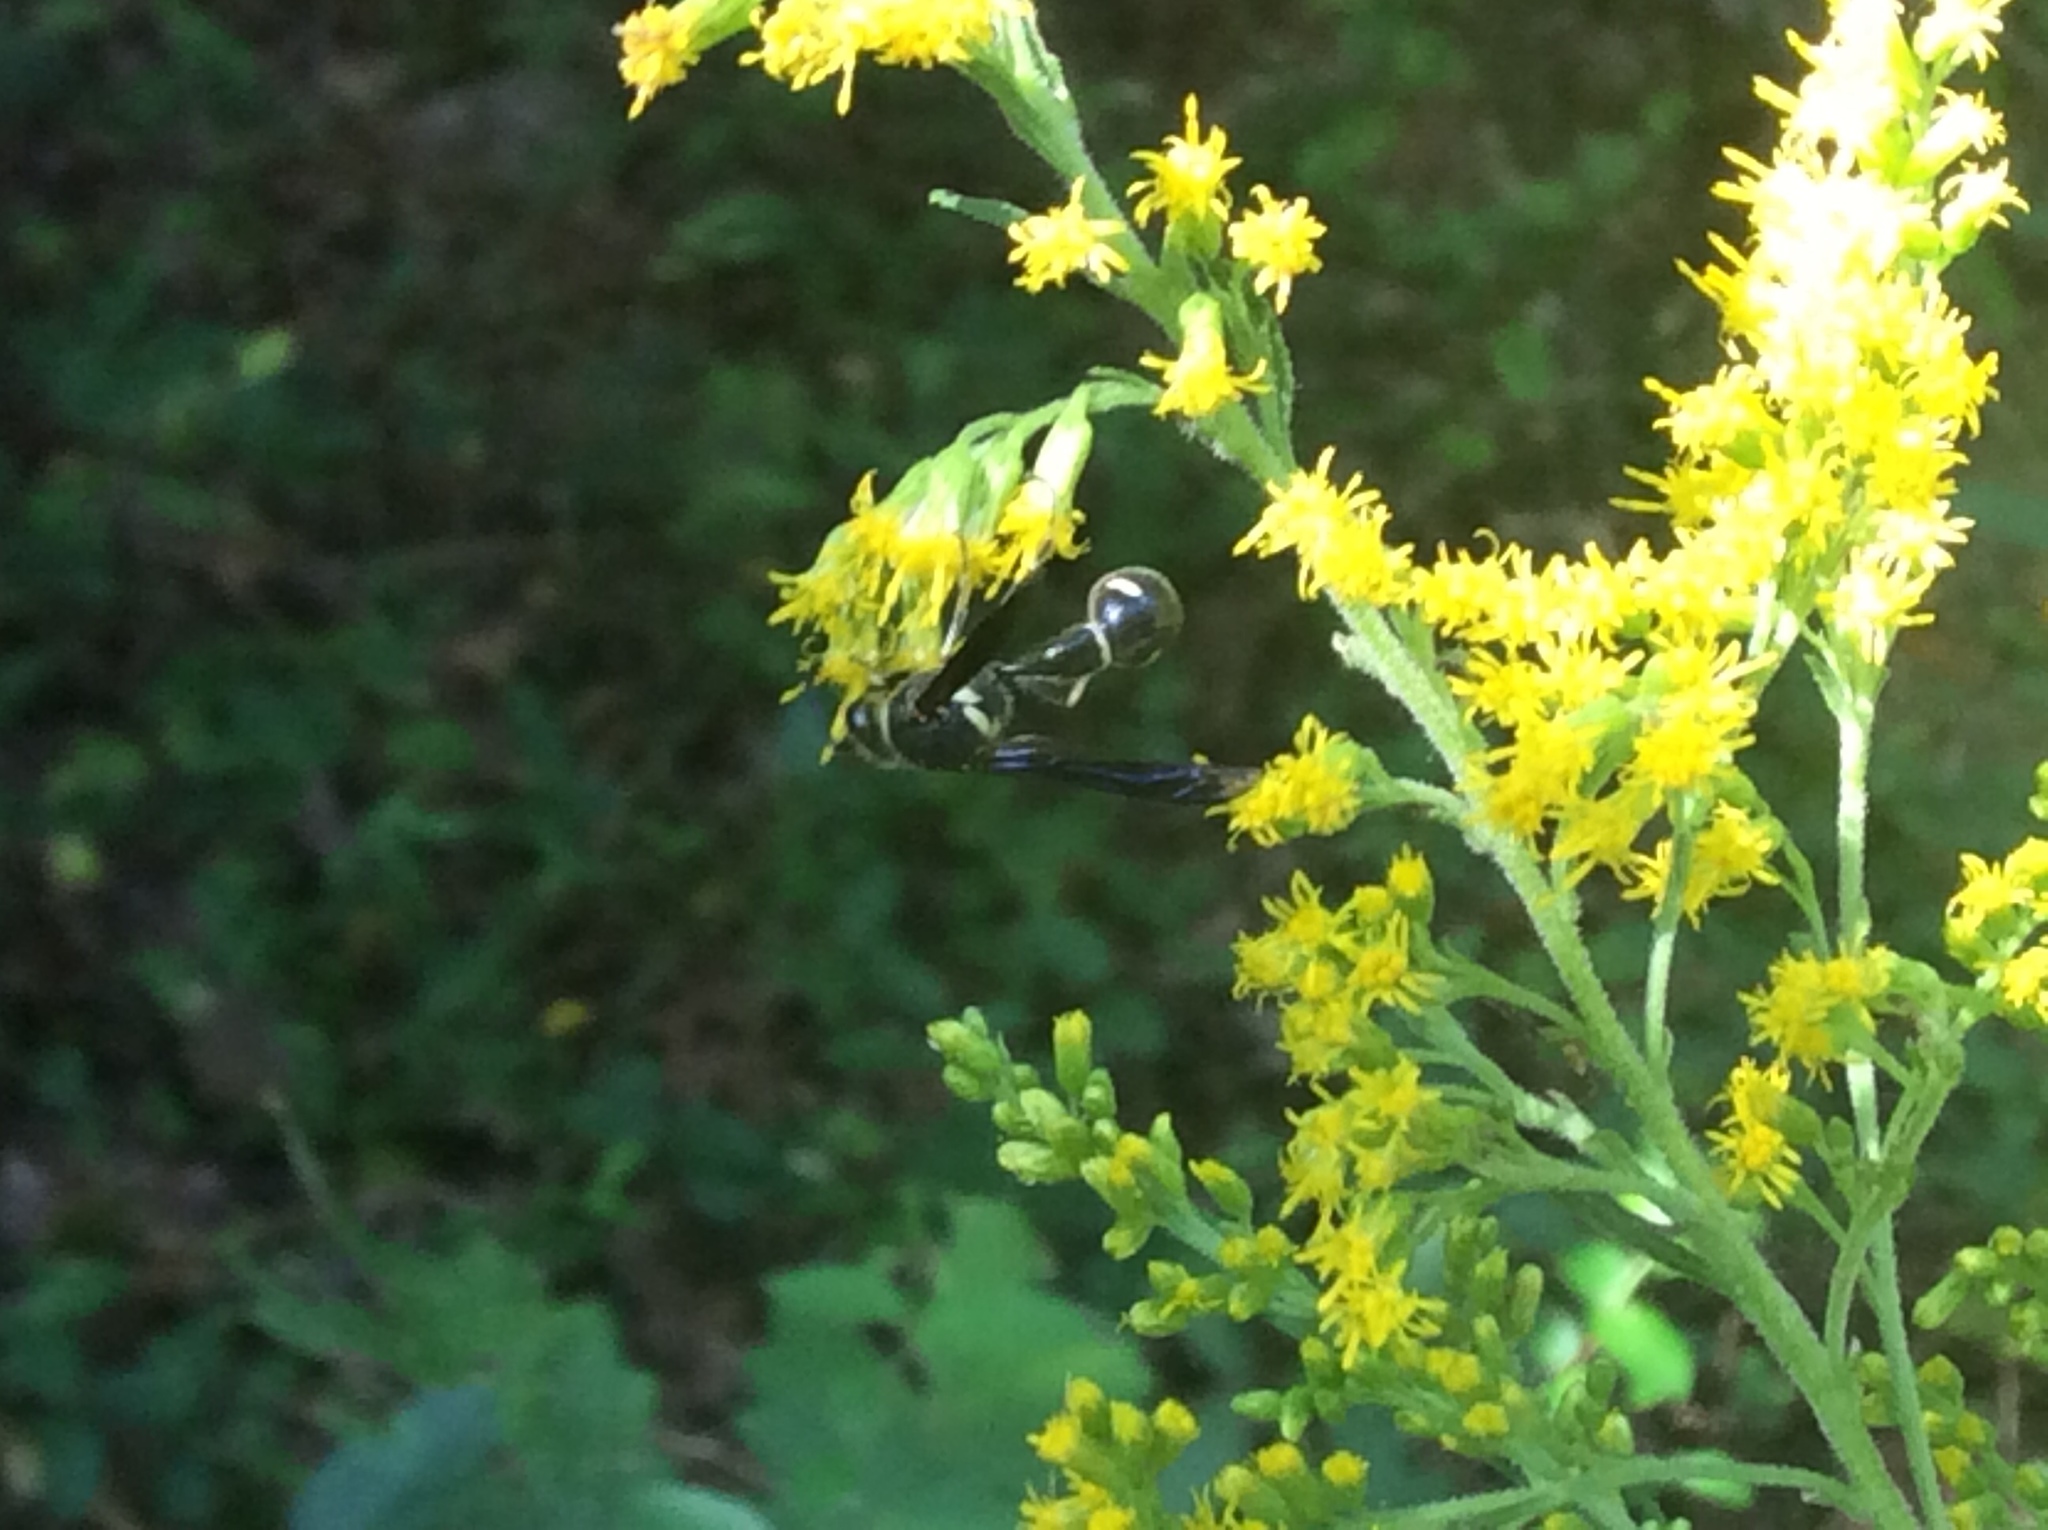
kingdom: Animalia
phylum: Arthropoda
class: Insecta
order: Hymenoptera
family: Vespidae
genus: Eumenes
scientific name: Eumenes fraternus
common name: Fraternal potter wasp
